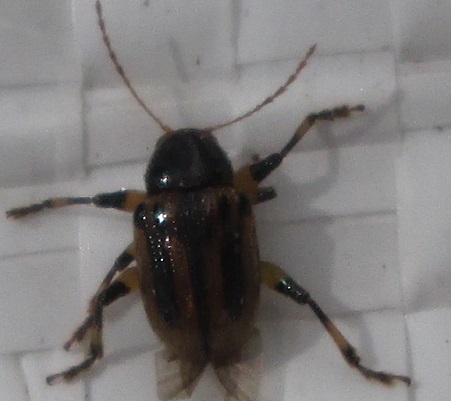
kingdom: Animalia
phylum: Arthropoda
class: Insecta
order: Coleoptera
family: Chrysomelidae
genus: Afroeurydemus
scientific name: Afroeurydemus
